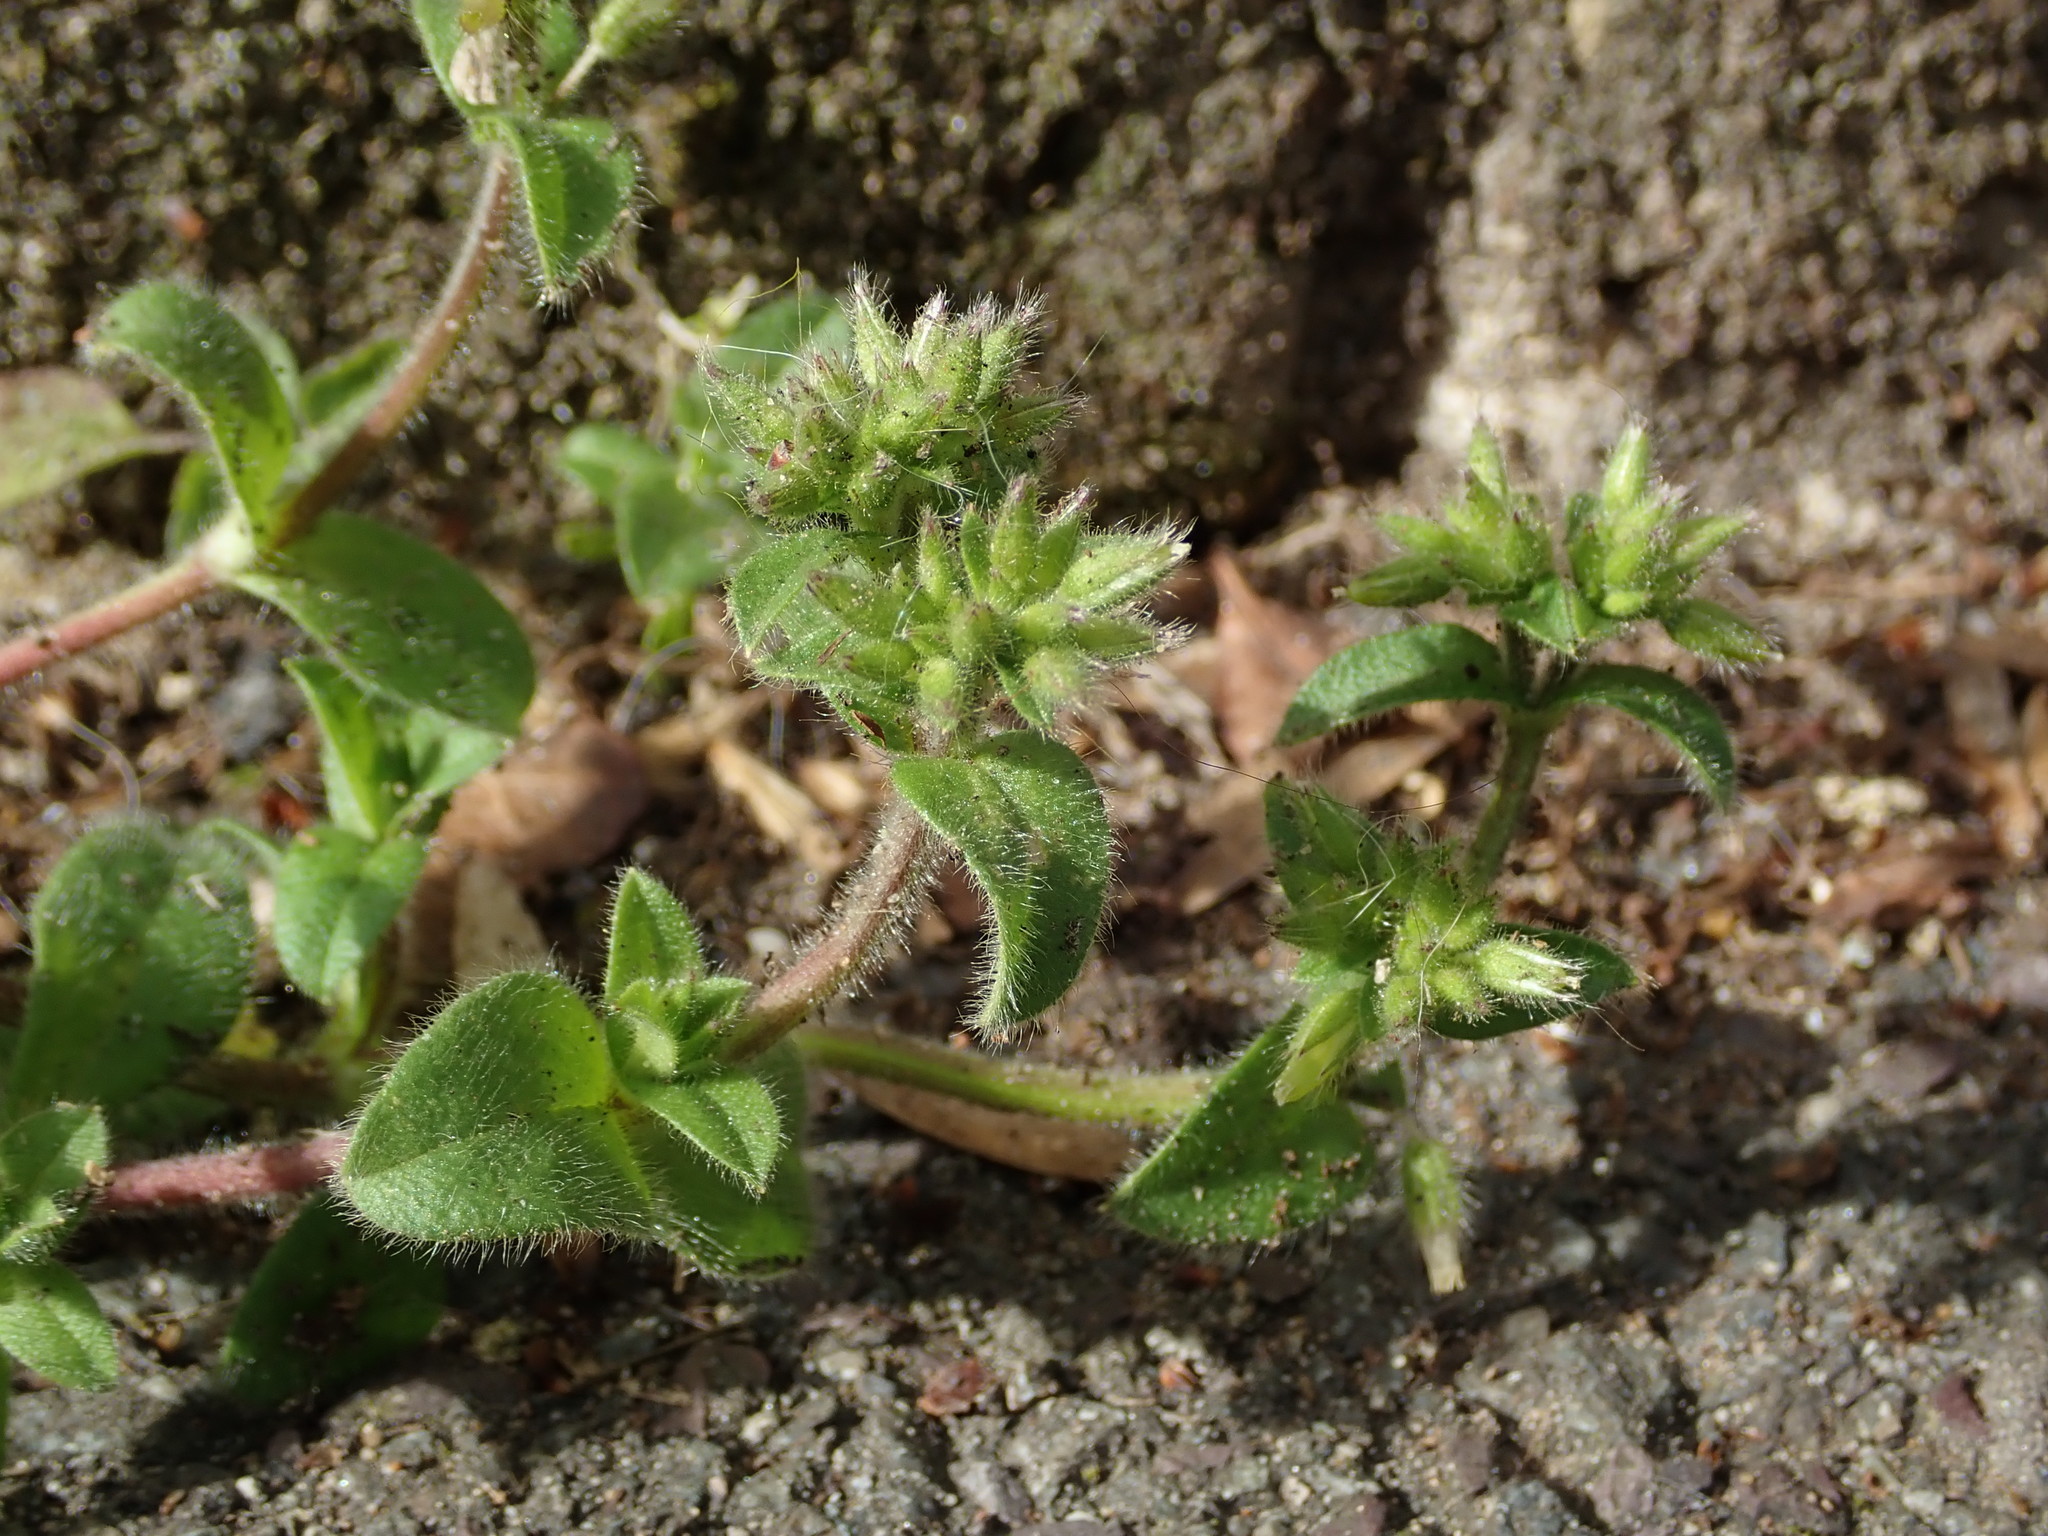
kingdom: Plantae
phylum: Tracheophyta
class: Magnoliopsida
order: Caryophyllales
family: Caryophyllaceae
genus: Cerastium
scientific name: Cerastium glomeratum
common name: Sticky chickweed
